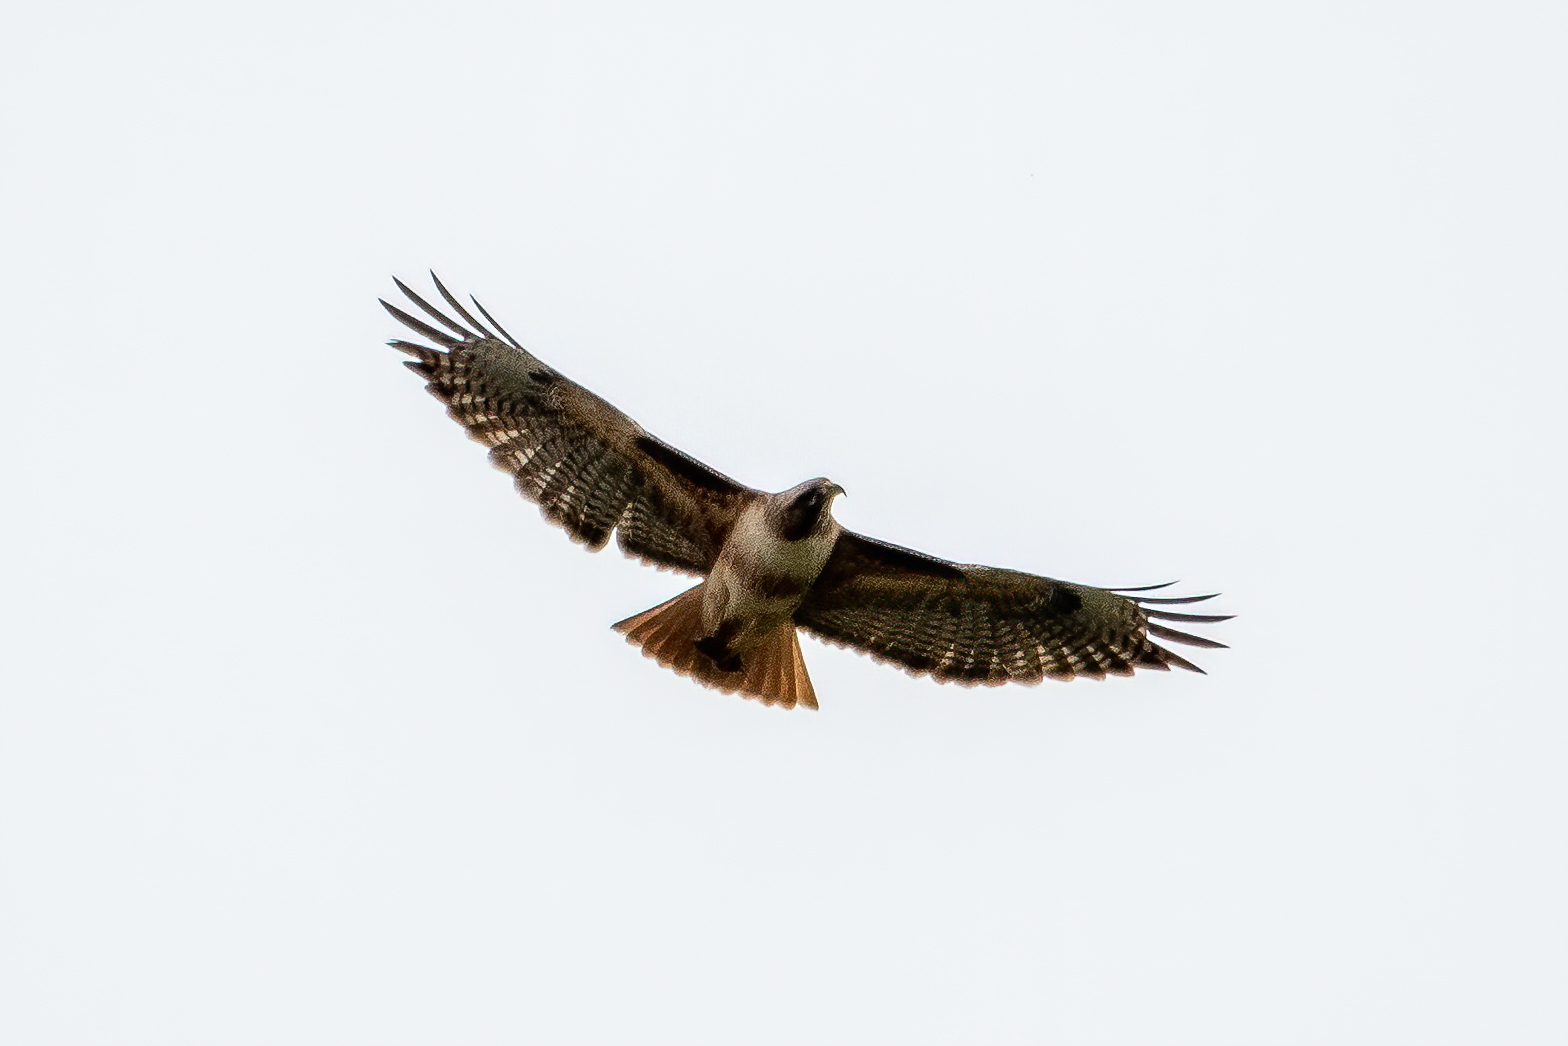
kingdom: Animalia
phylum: Chordata
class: Aves
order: Accipitriformes
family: Accipitridae
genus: Buteo
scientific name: Buteo jamaicensis
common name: Red-tailed hawk
